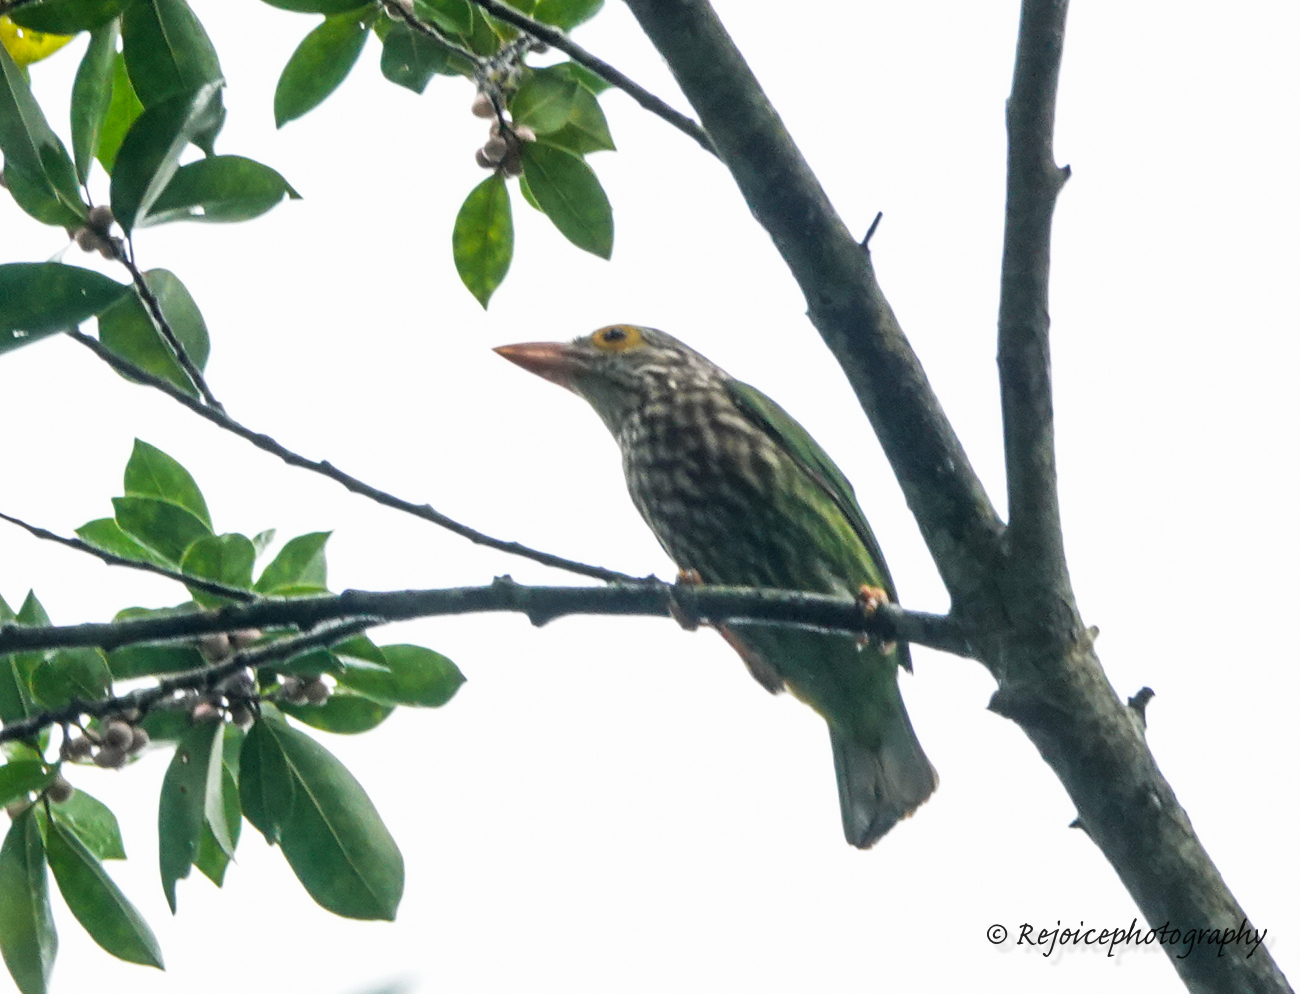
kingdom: Animalia
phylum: Chordata
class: Aves
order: Piciformes
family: Megalaimidae
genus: Psilopogon
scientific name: Psilopogon lineatus
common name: Lineated barbet
